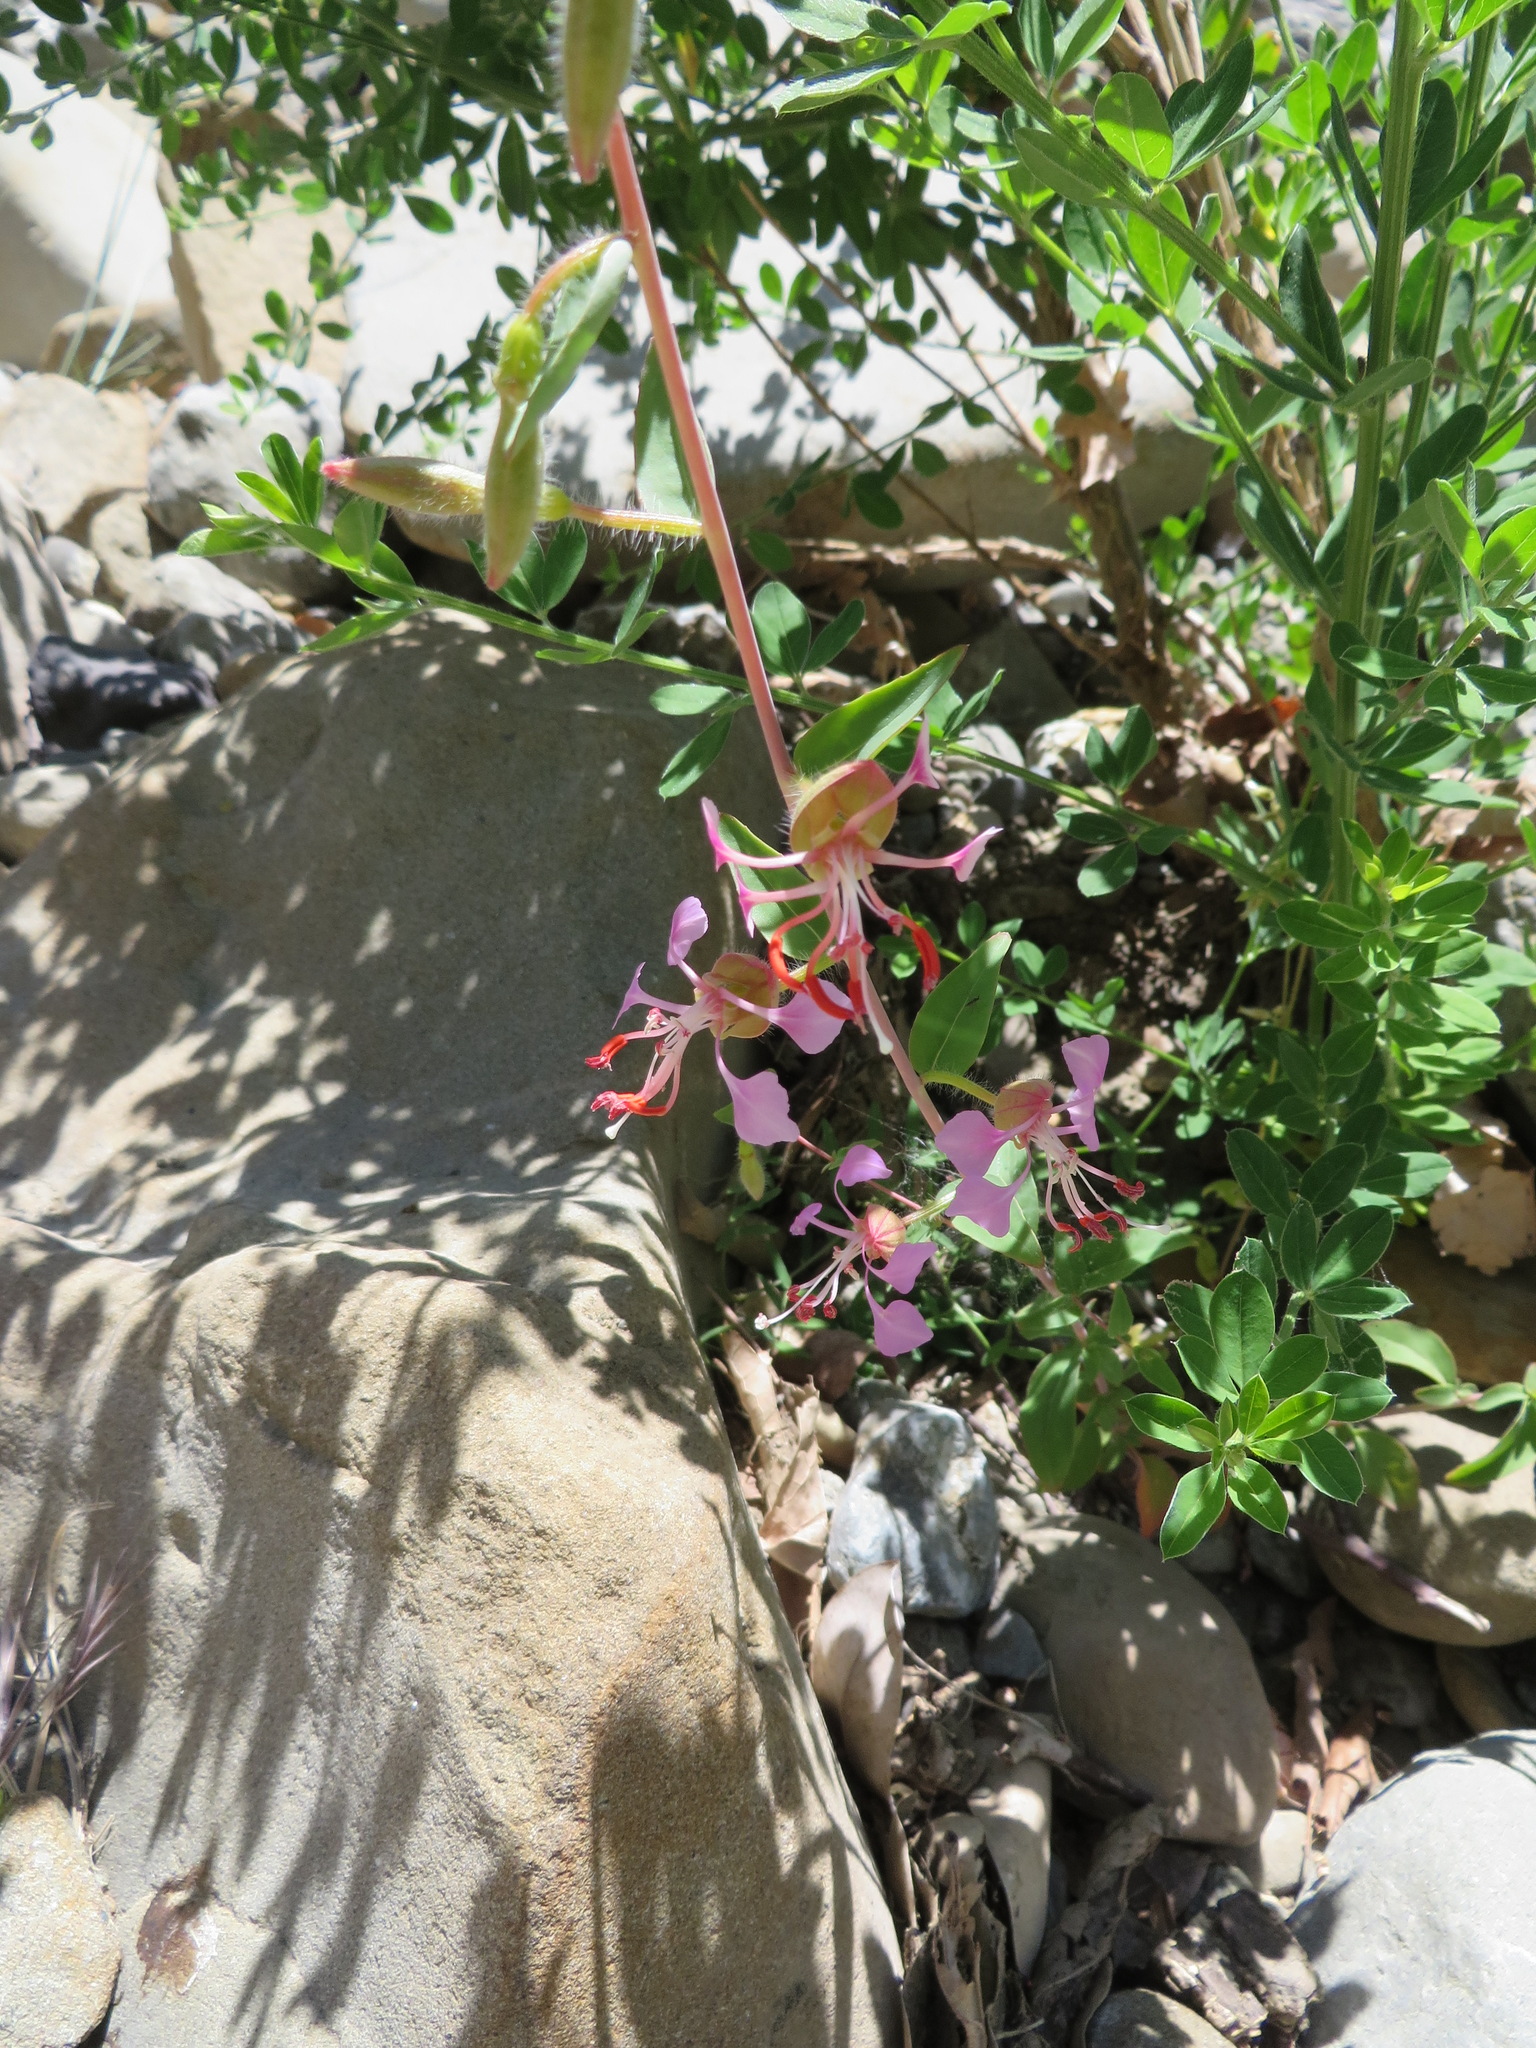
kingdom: Plantae
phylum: Tracheophyta
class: Magnoliopsida
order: Myrtales
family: Onagraceae
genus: Clarkia
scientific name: Clarkia unguiculata
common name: Clarkia
